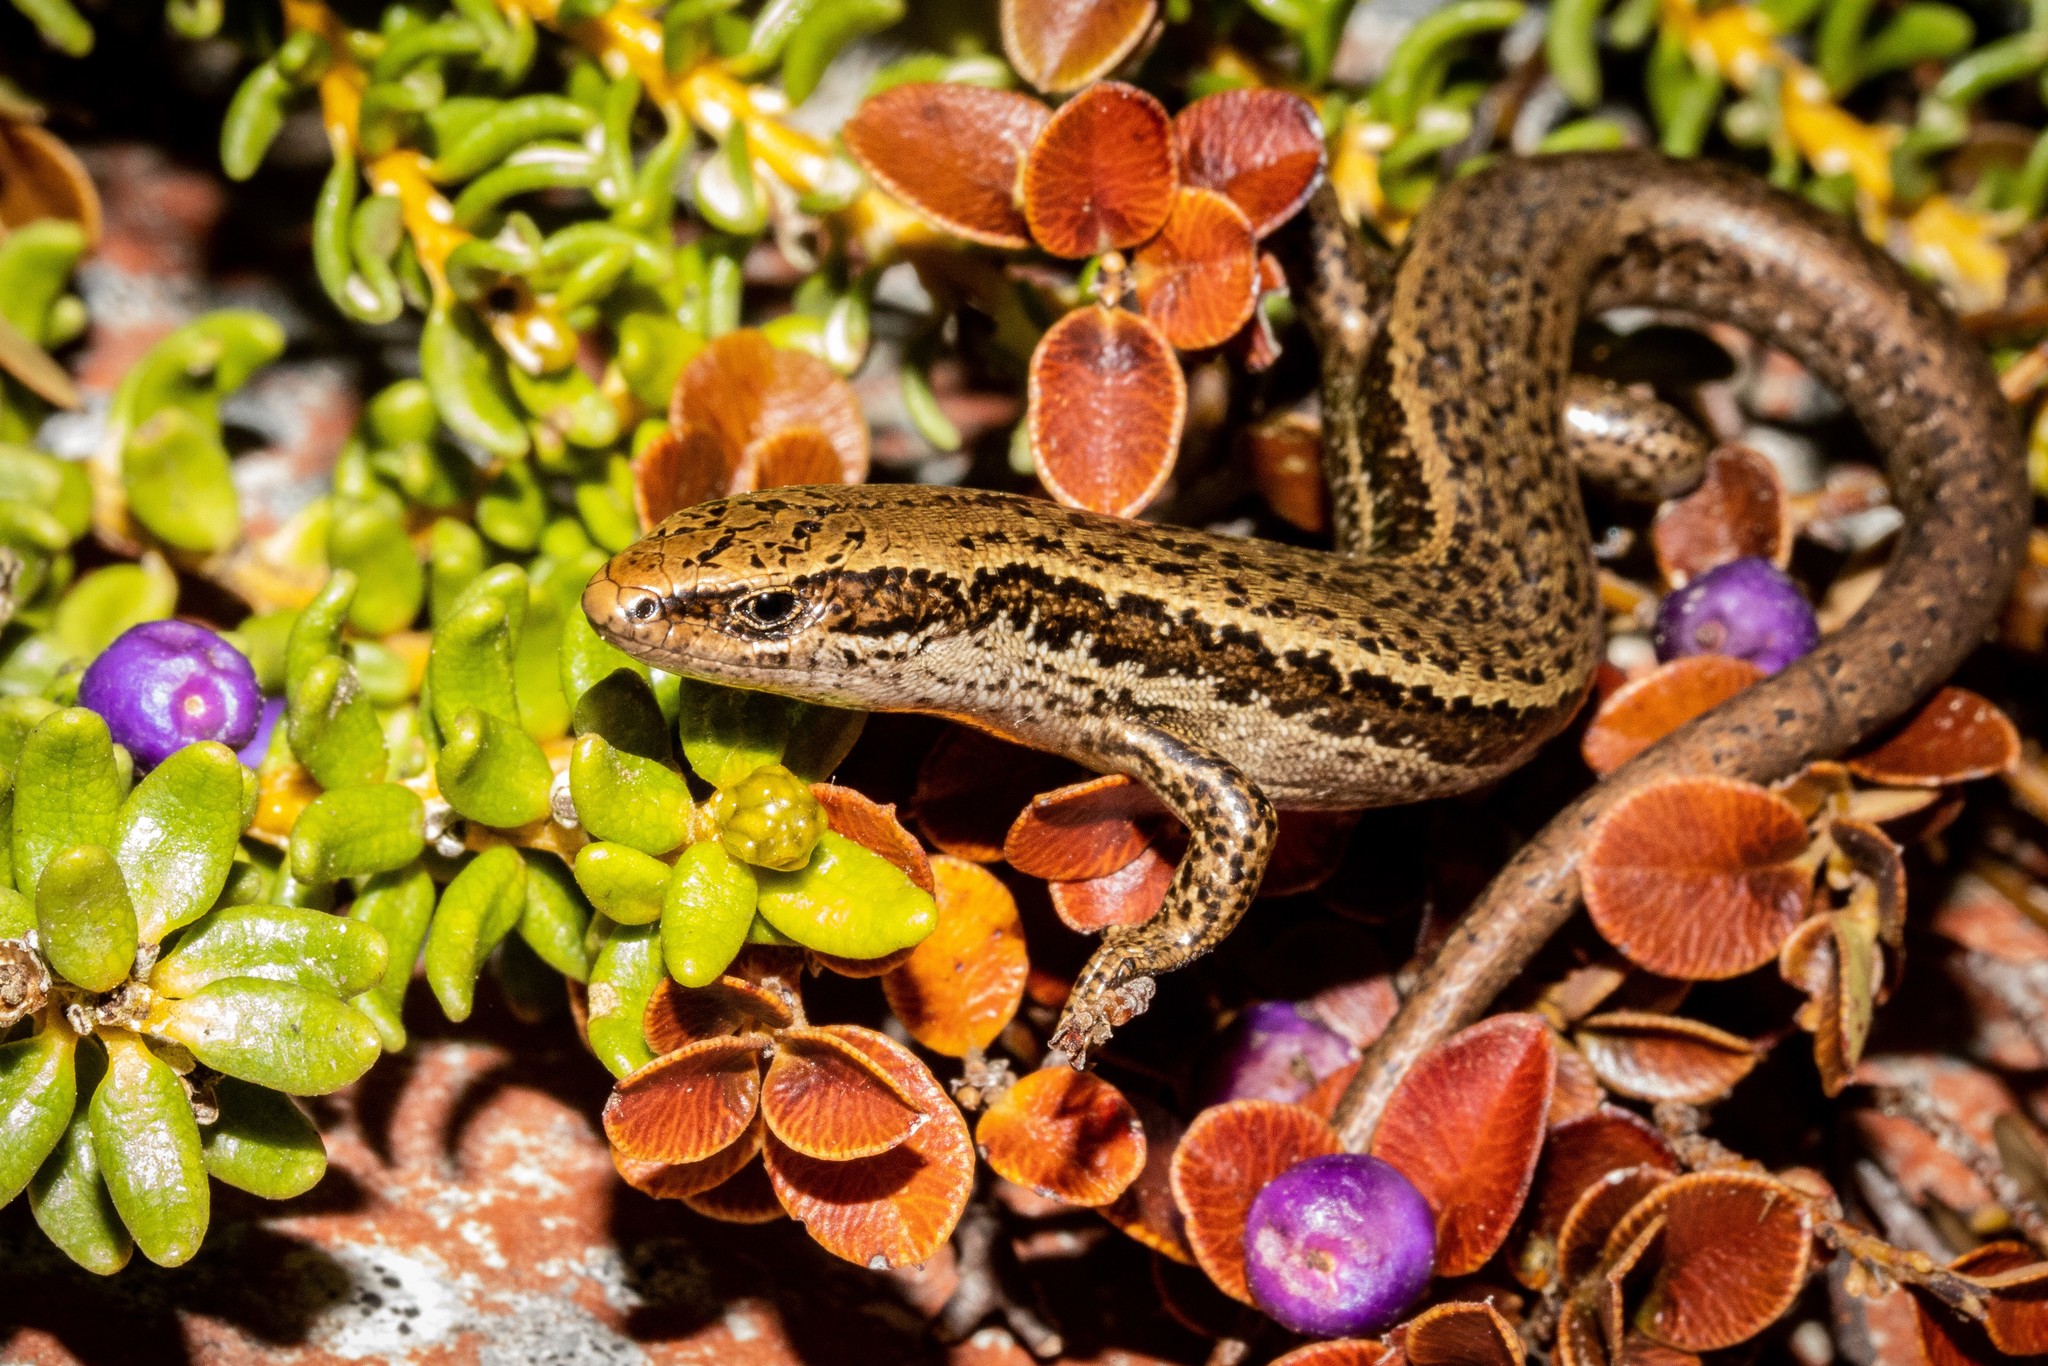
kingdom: Animalia
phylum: Chordata
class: Squamata
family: Scincidae
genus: Oligosoma
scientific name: Oligosoma inconspicuum
